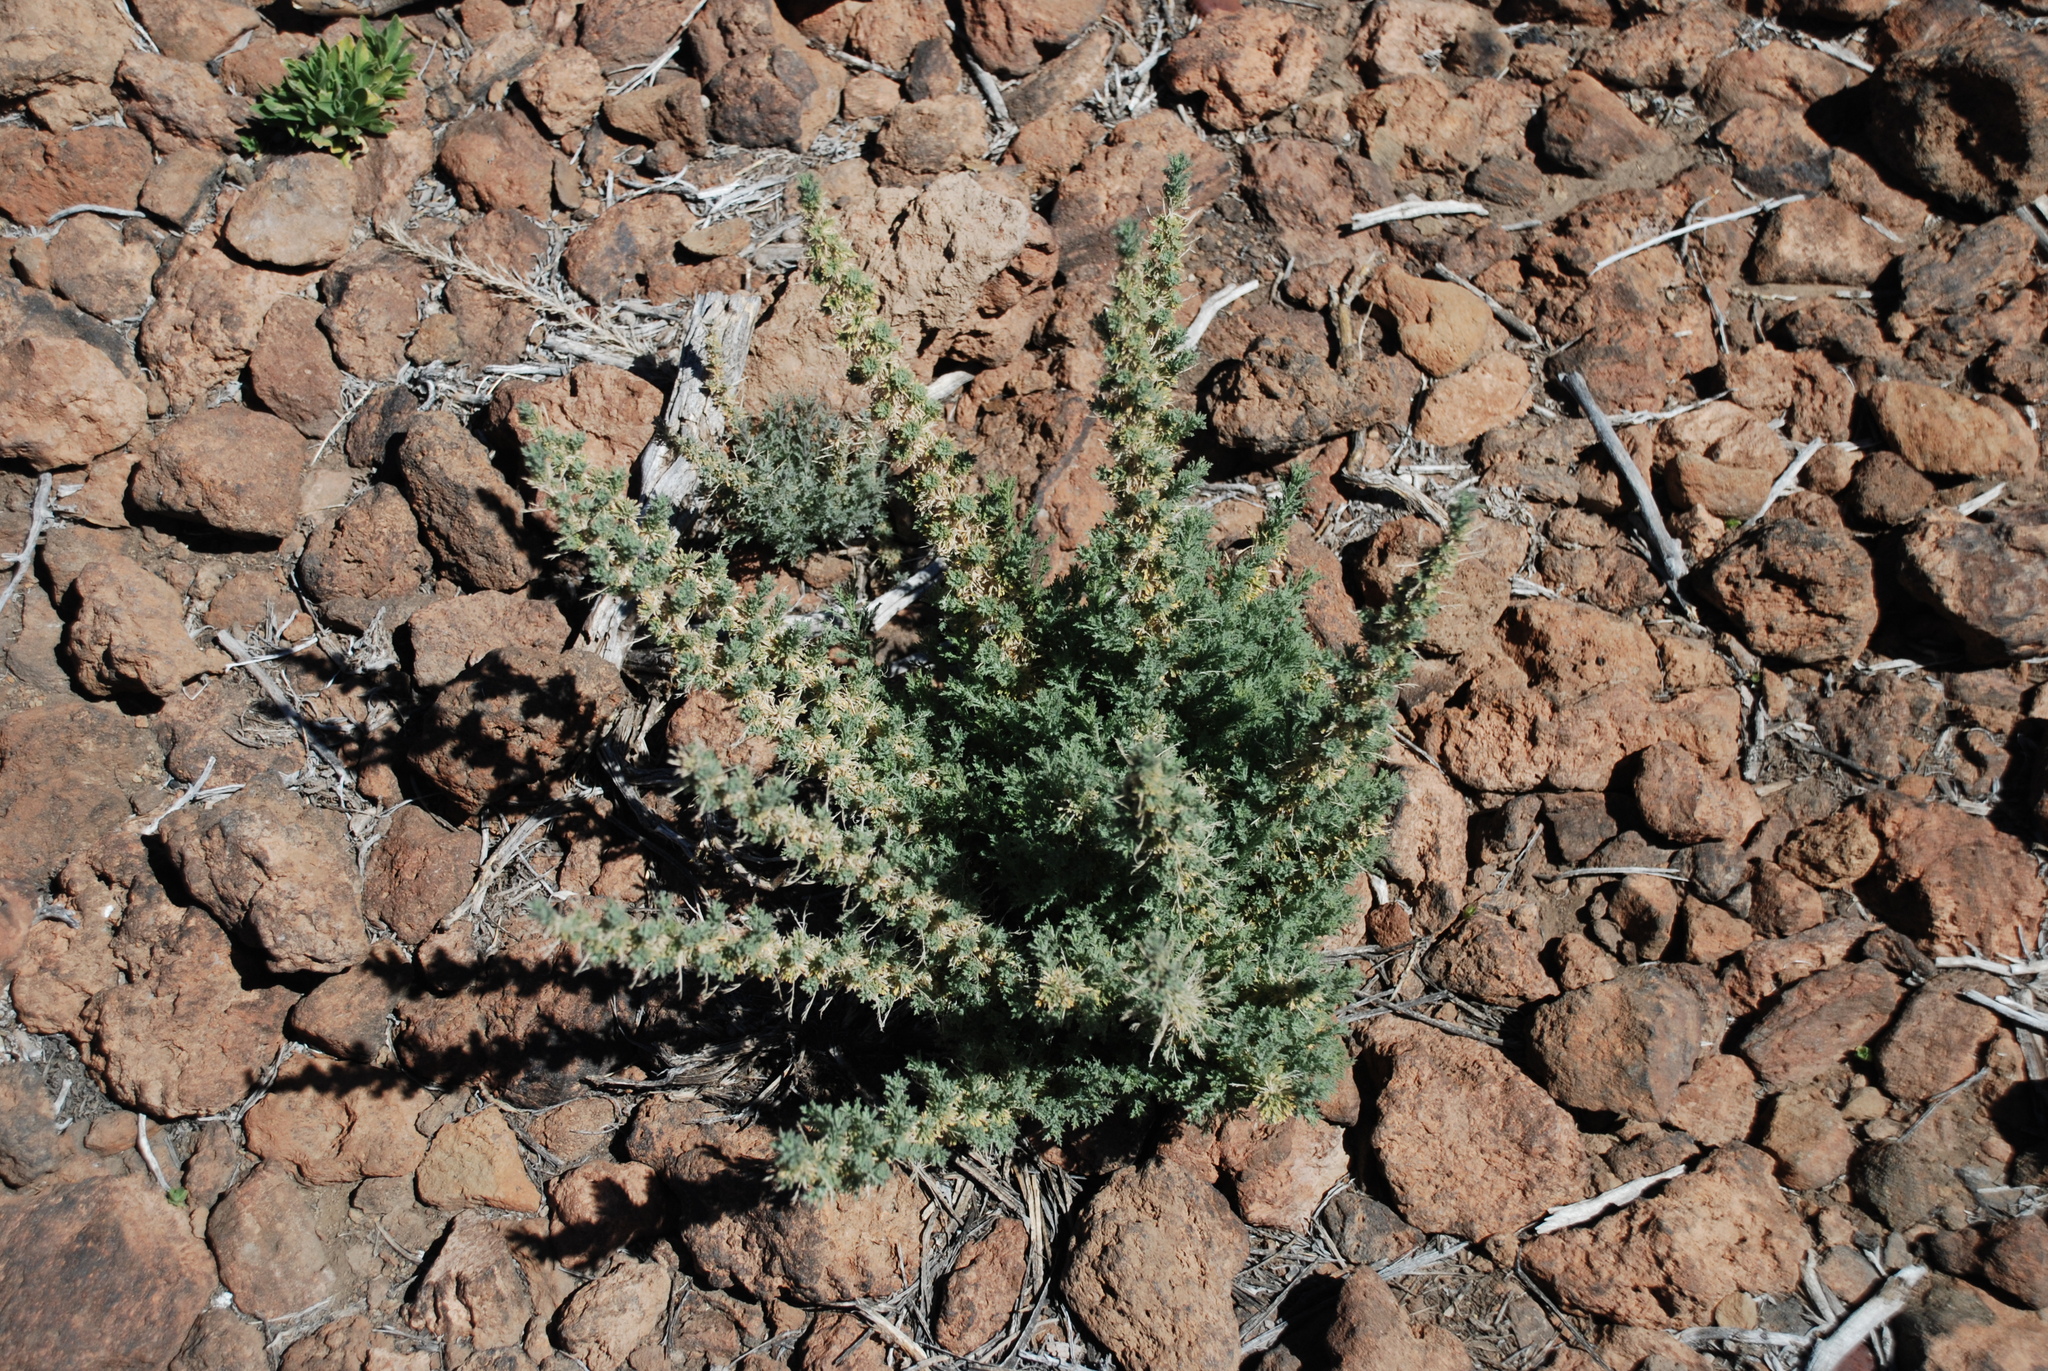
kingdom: Plantae
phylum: Tracheophyta
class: Magnoliopsida
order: Fabales
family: Fabaceae
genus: Adenocarpus
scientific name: Adenocarpus viscosus
